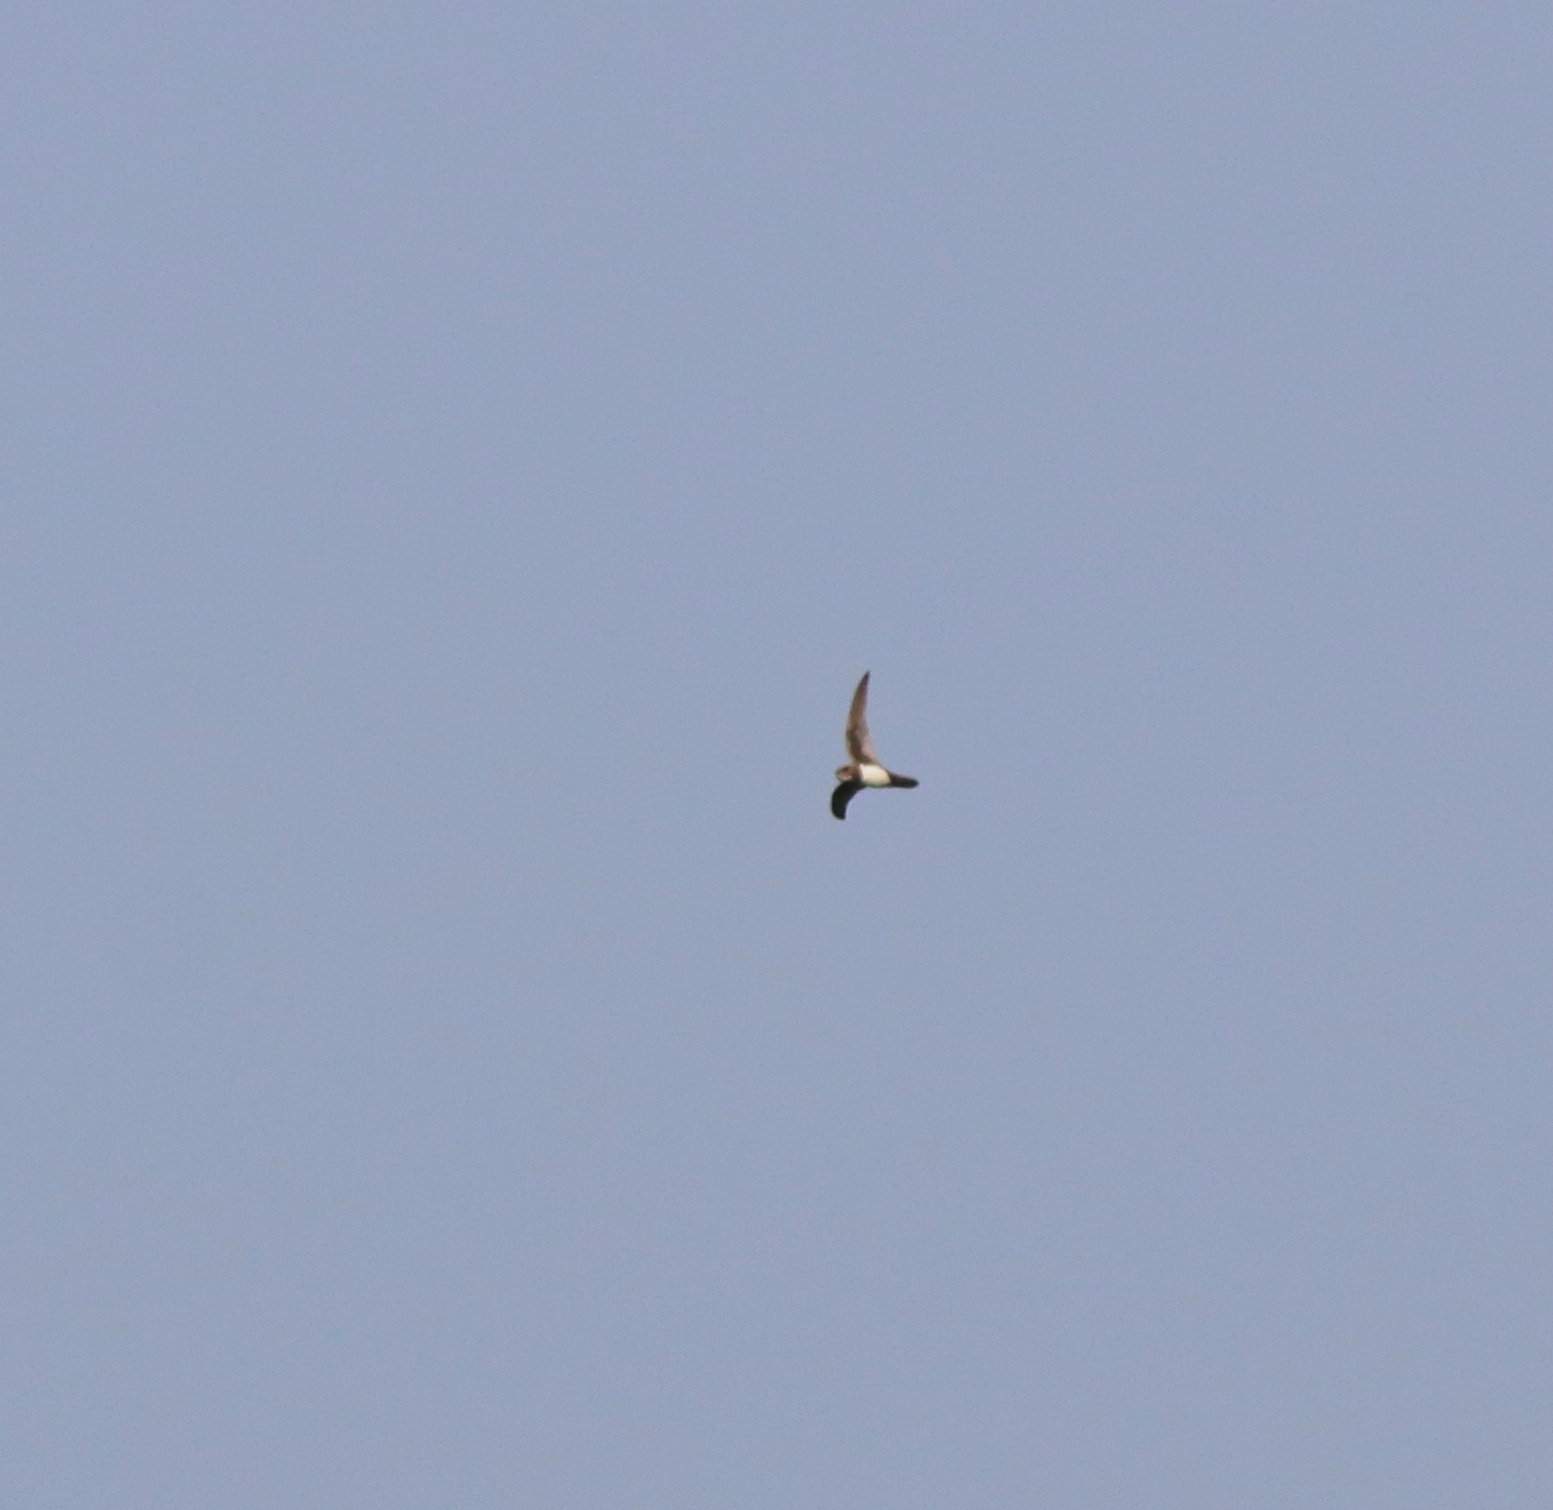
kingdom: Animalia
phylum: Chordata
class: Aves
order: Apodiformes
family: Apodidae
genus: Tachymarptis
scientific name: Tachymarptis melba
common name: Alpine swift
